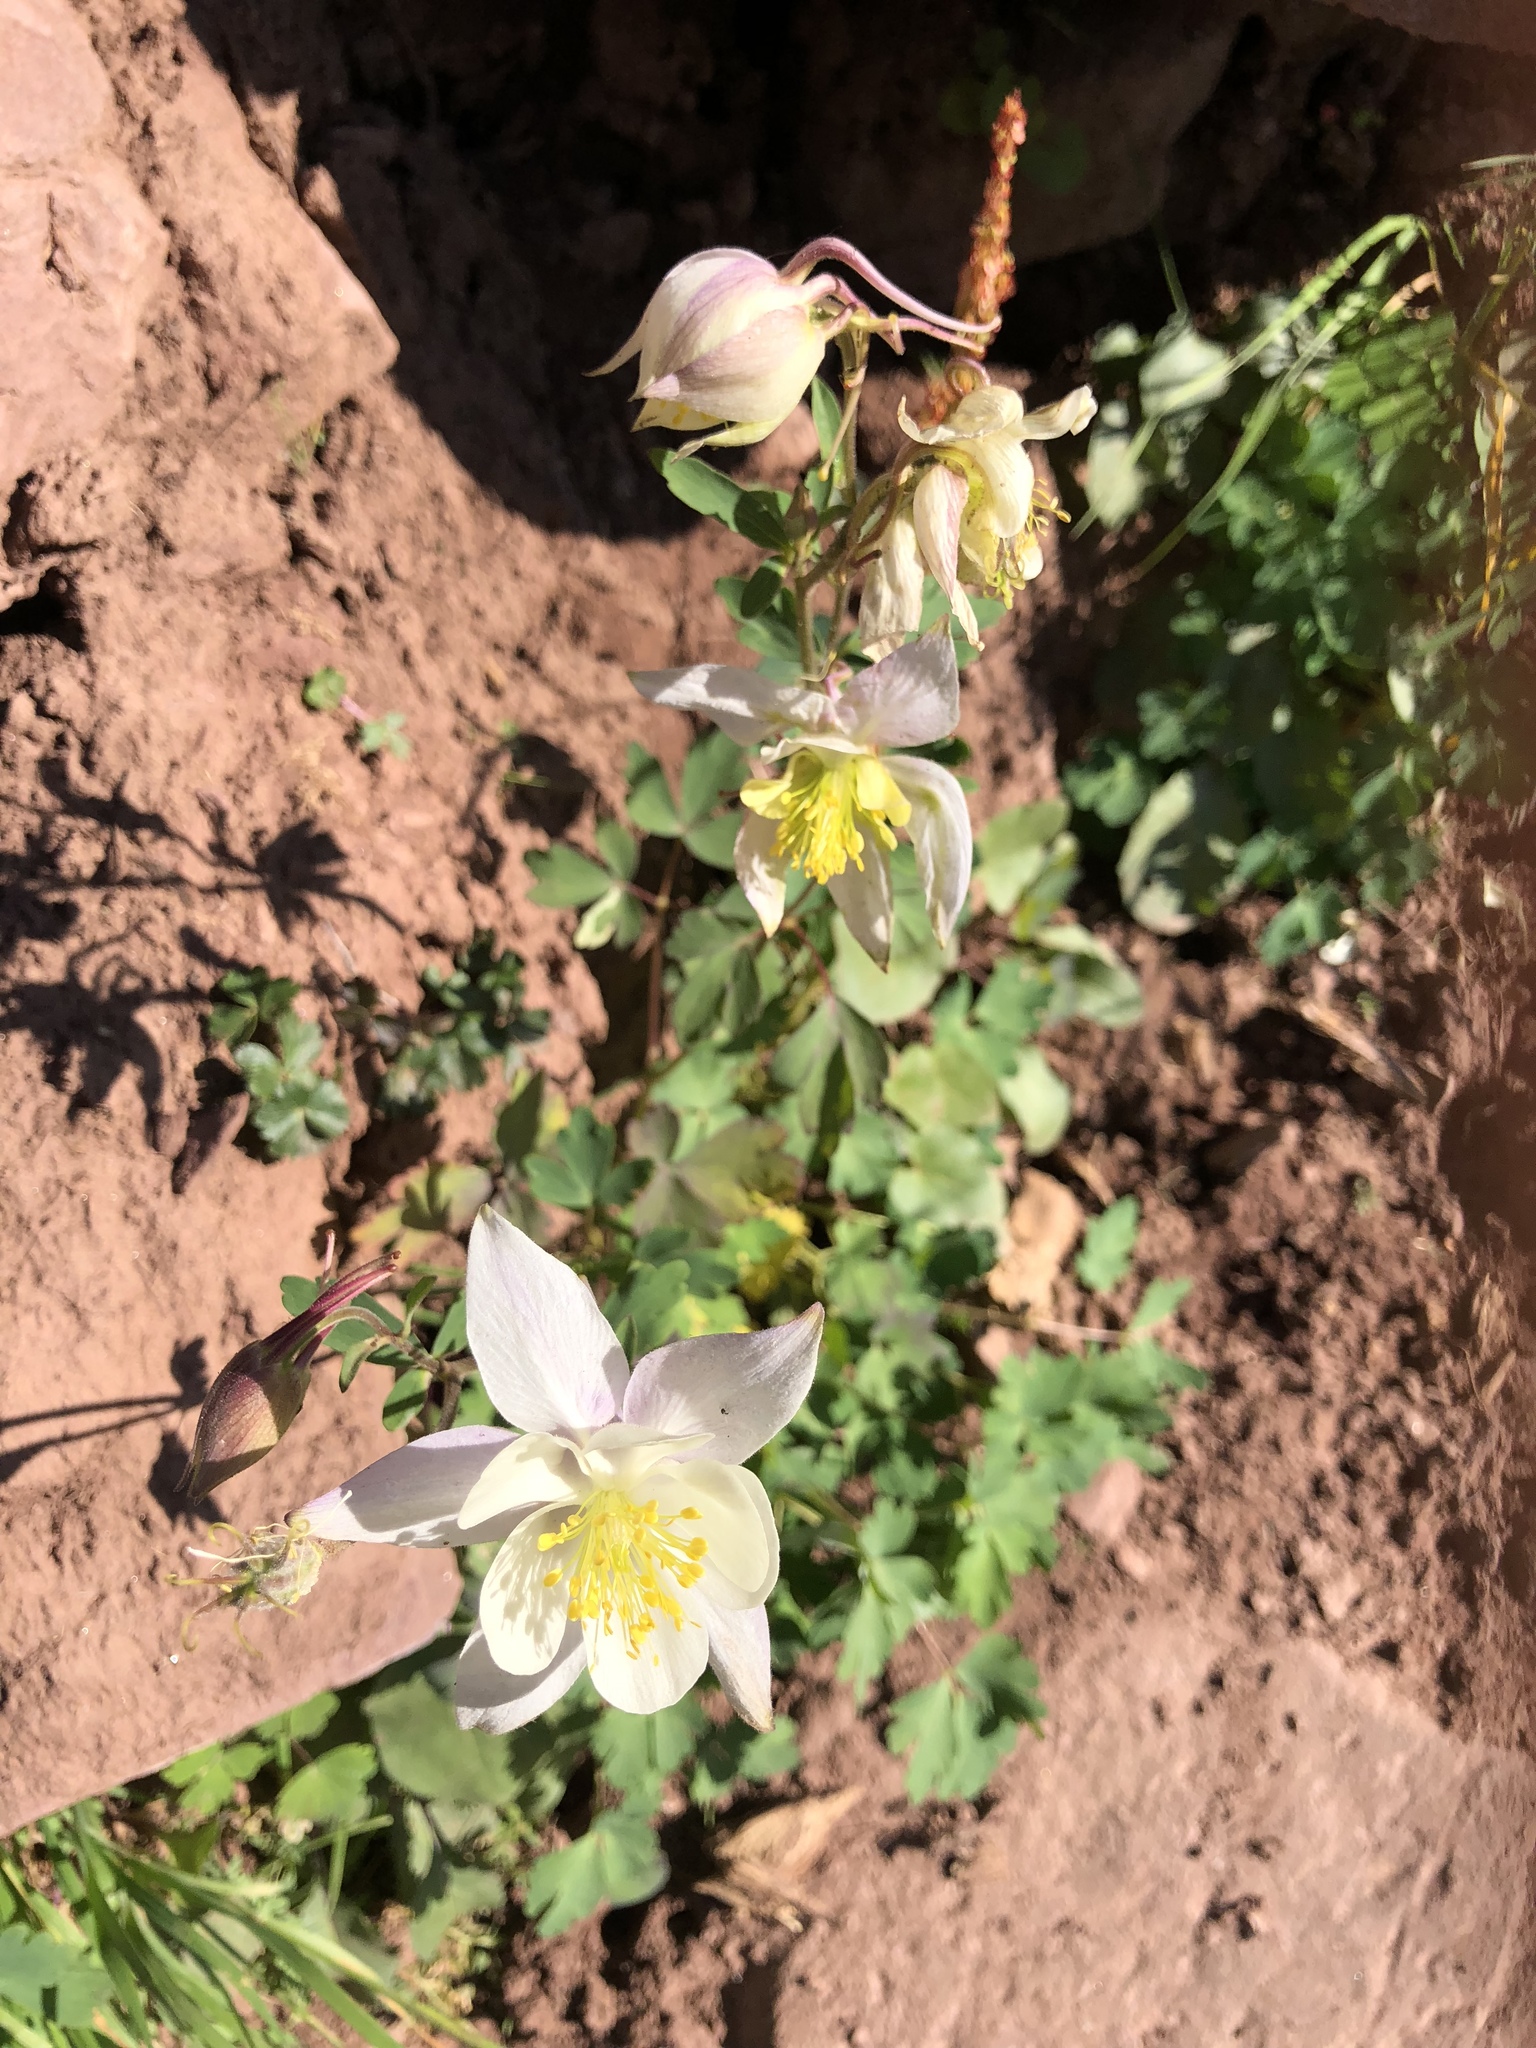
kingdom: Plantae
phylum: Tracheophyta
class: Magnoliopsida
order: Ranunculales
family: Ranunculaceae
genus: Aquilegia
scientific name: Aquilegia coerulea
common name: Rocky mountain columbine
